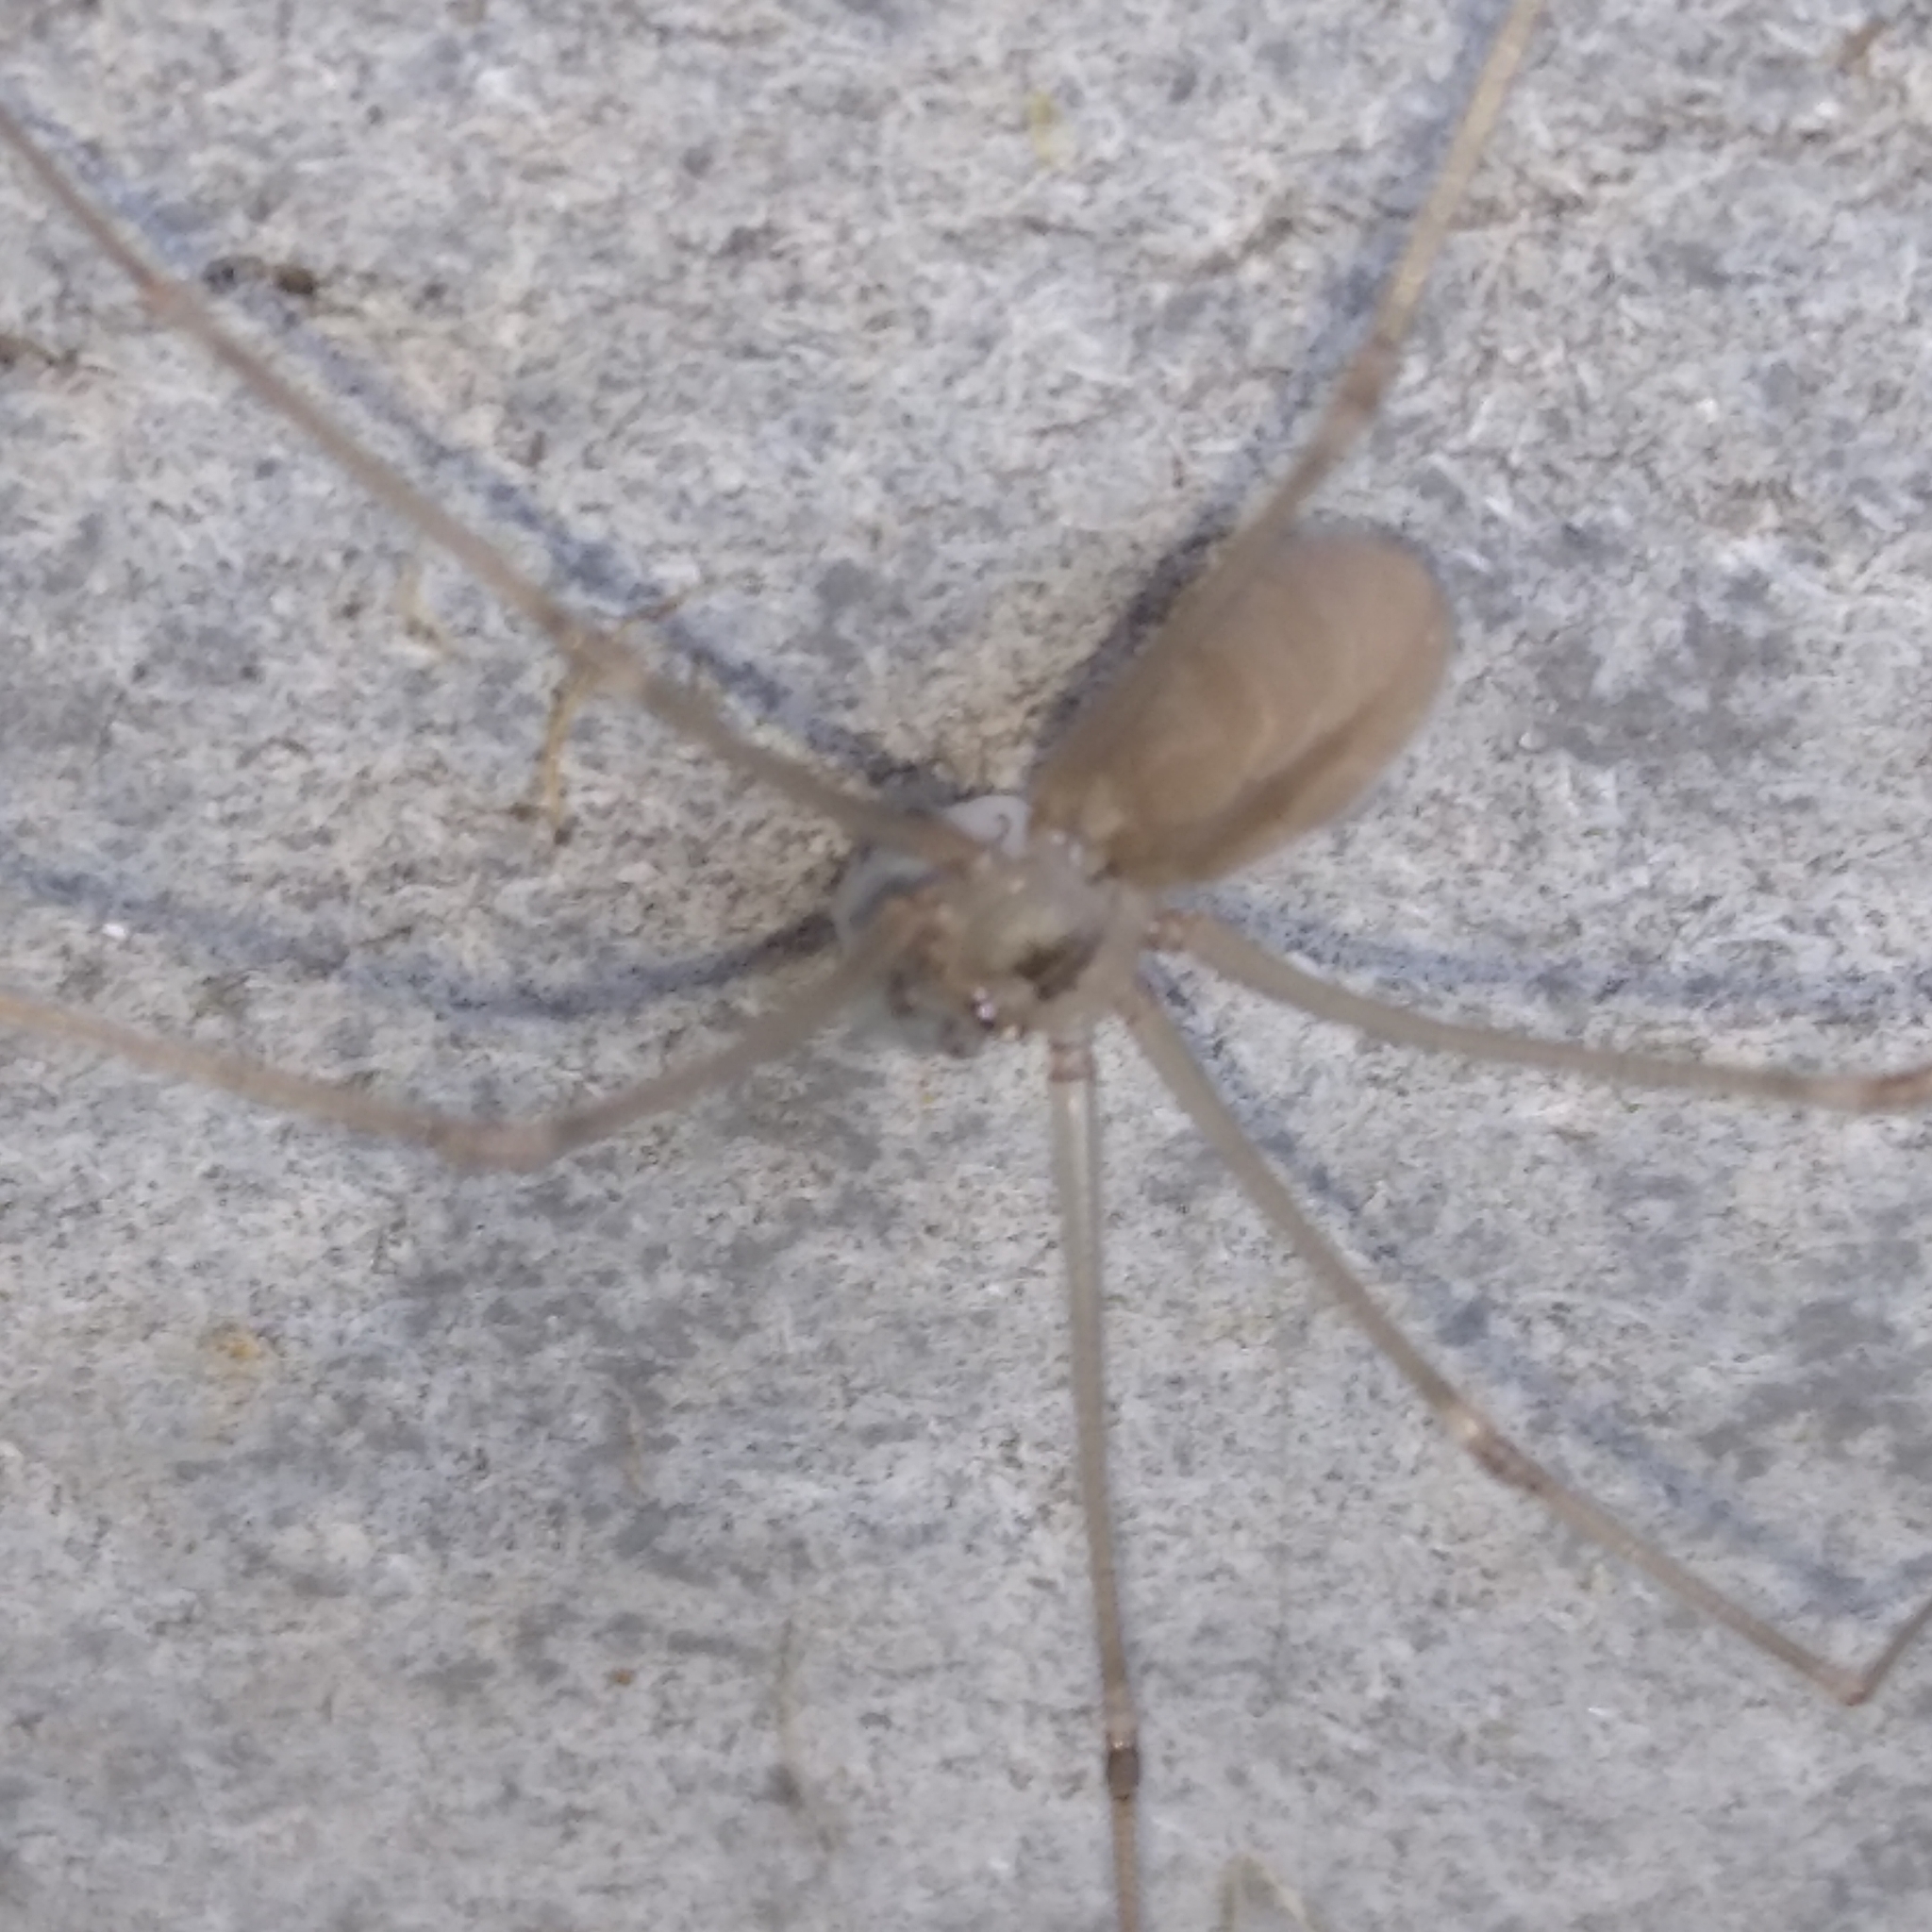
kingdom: Animalia
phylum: Arthropoda
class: Arachnida
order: Araneae
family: Pholcidae
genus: Pholcus
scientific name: Pholcus ponticus
